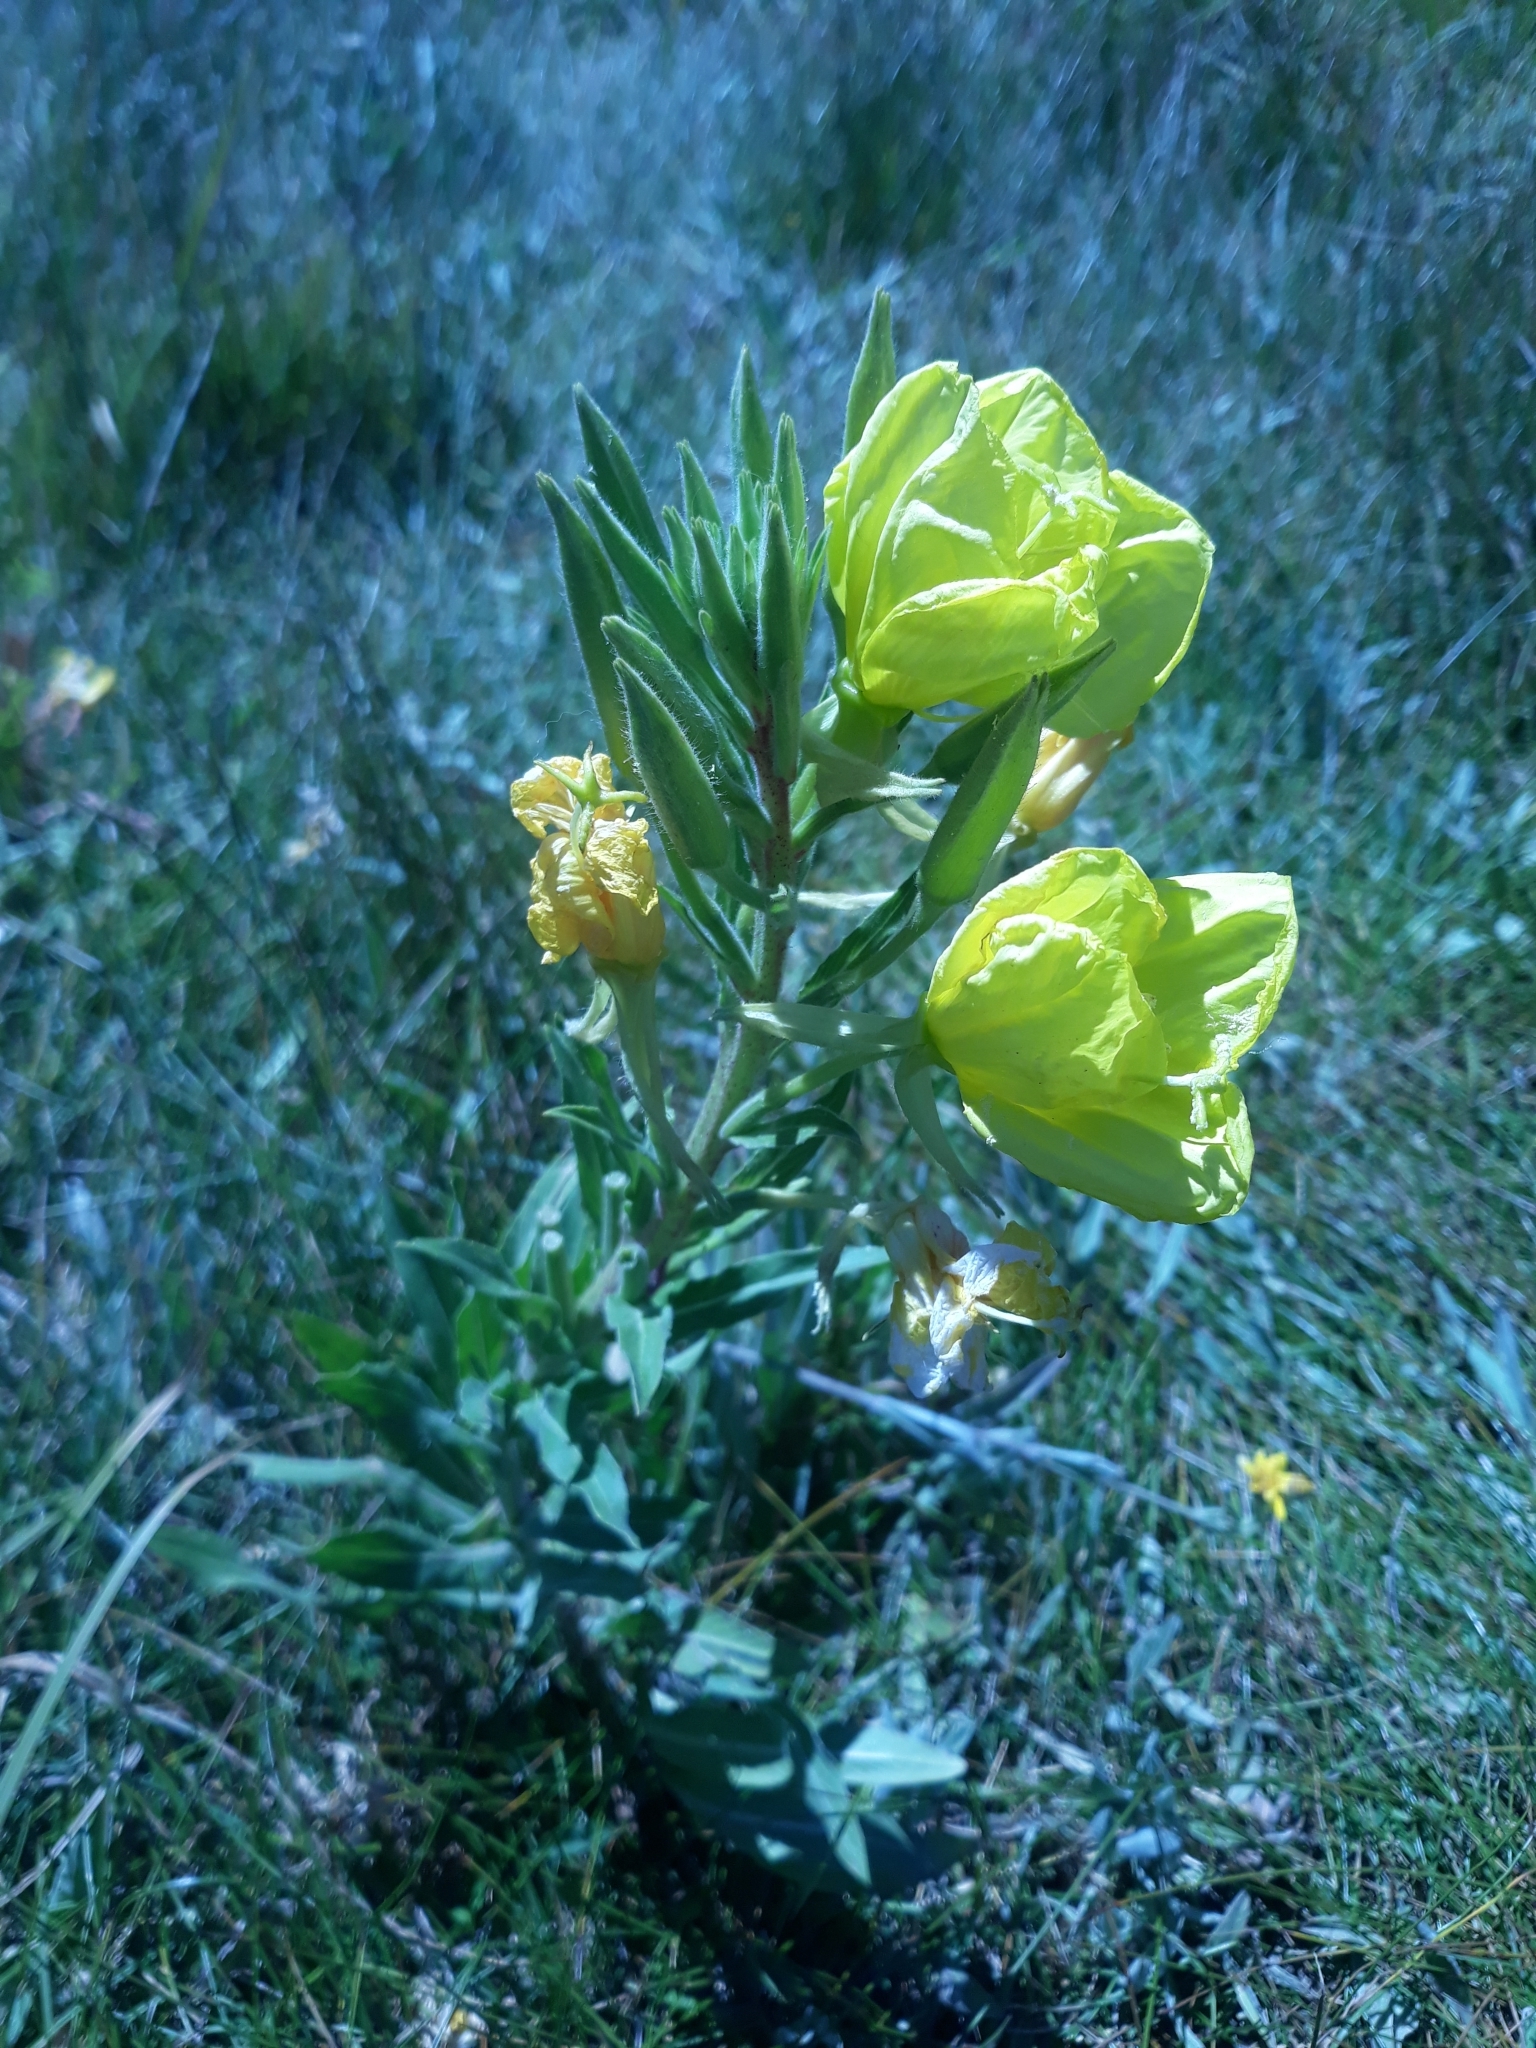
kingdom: Plantae
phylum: Tracheophyta
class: Magnoliopsida
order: Myrtales
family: Onagraceae
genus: Oenothera
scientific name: Oenothera elata
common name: Hooker's evening-primrose
